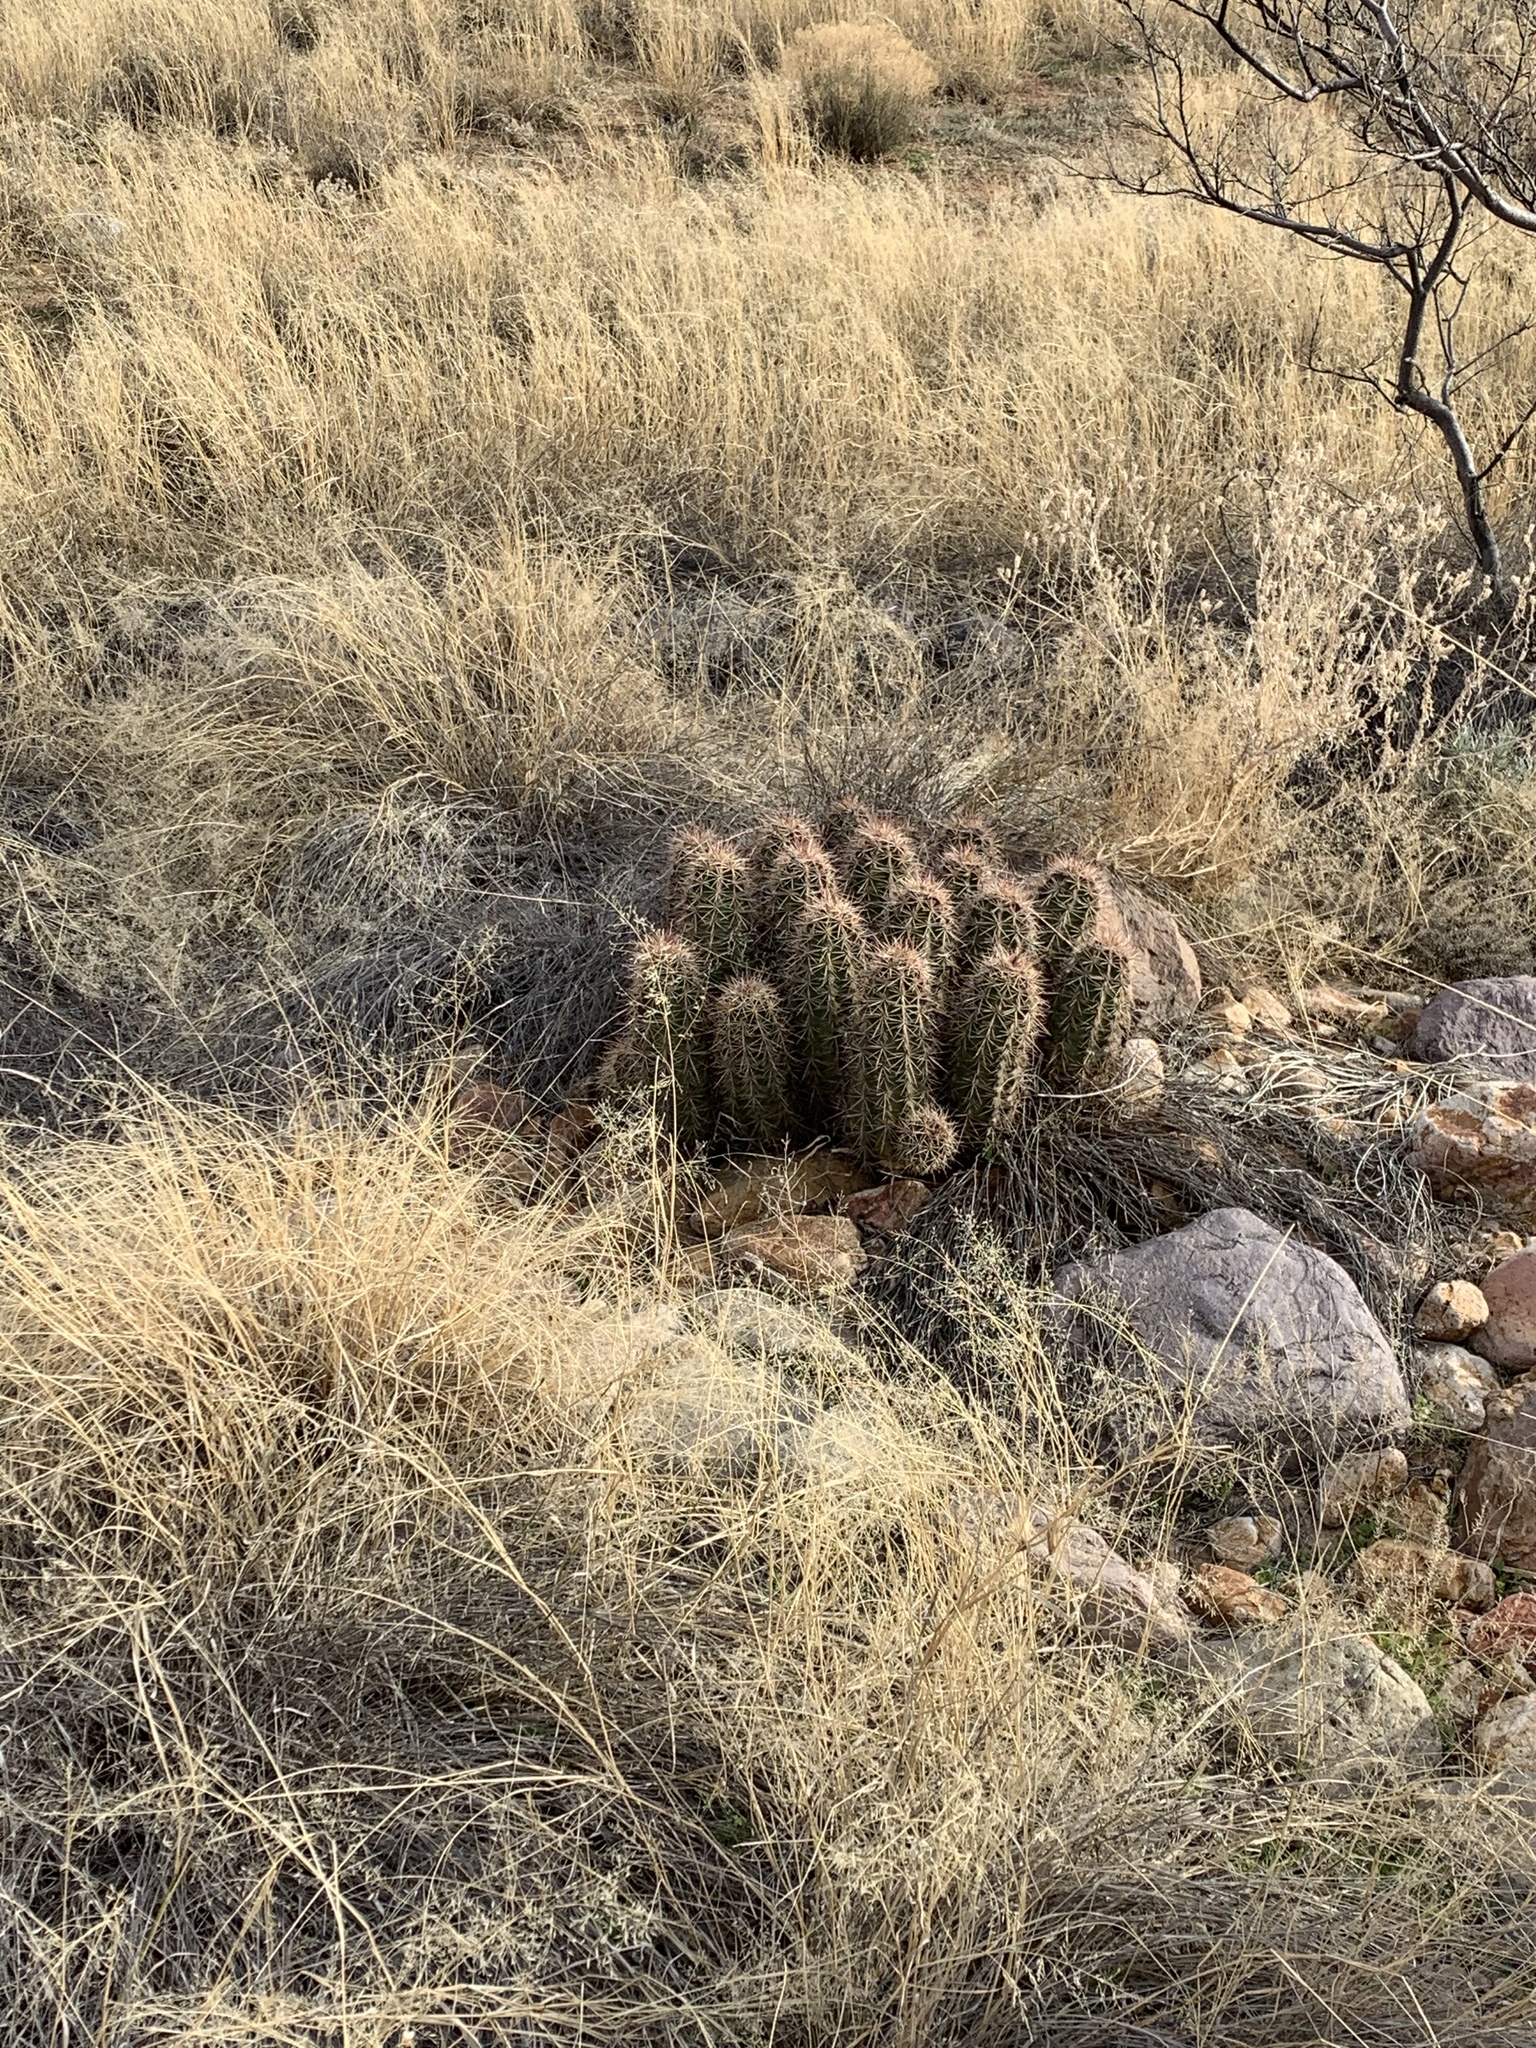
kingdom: Plantae
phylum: Tracheophyta
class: Magnoliopsida
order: Caryophyllales
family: Cactaceae
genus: Echinocereus
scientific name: Echinocereus coccineus
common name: Scarlet hedgehog cactus
